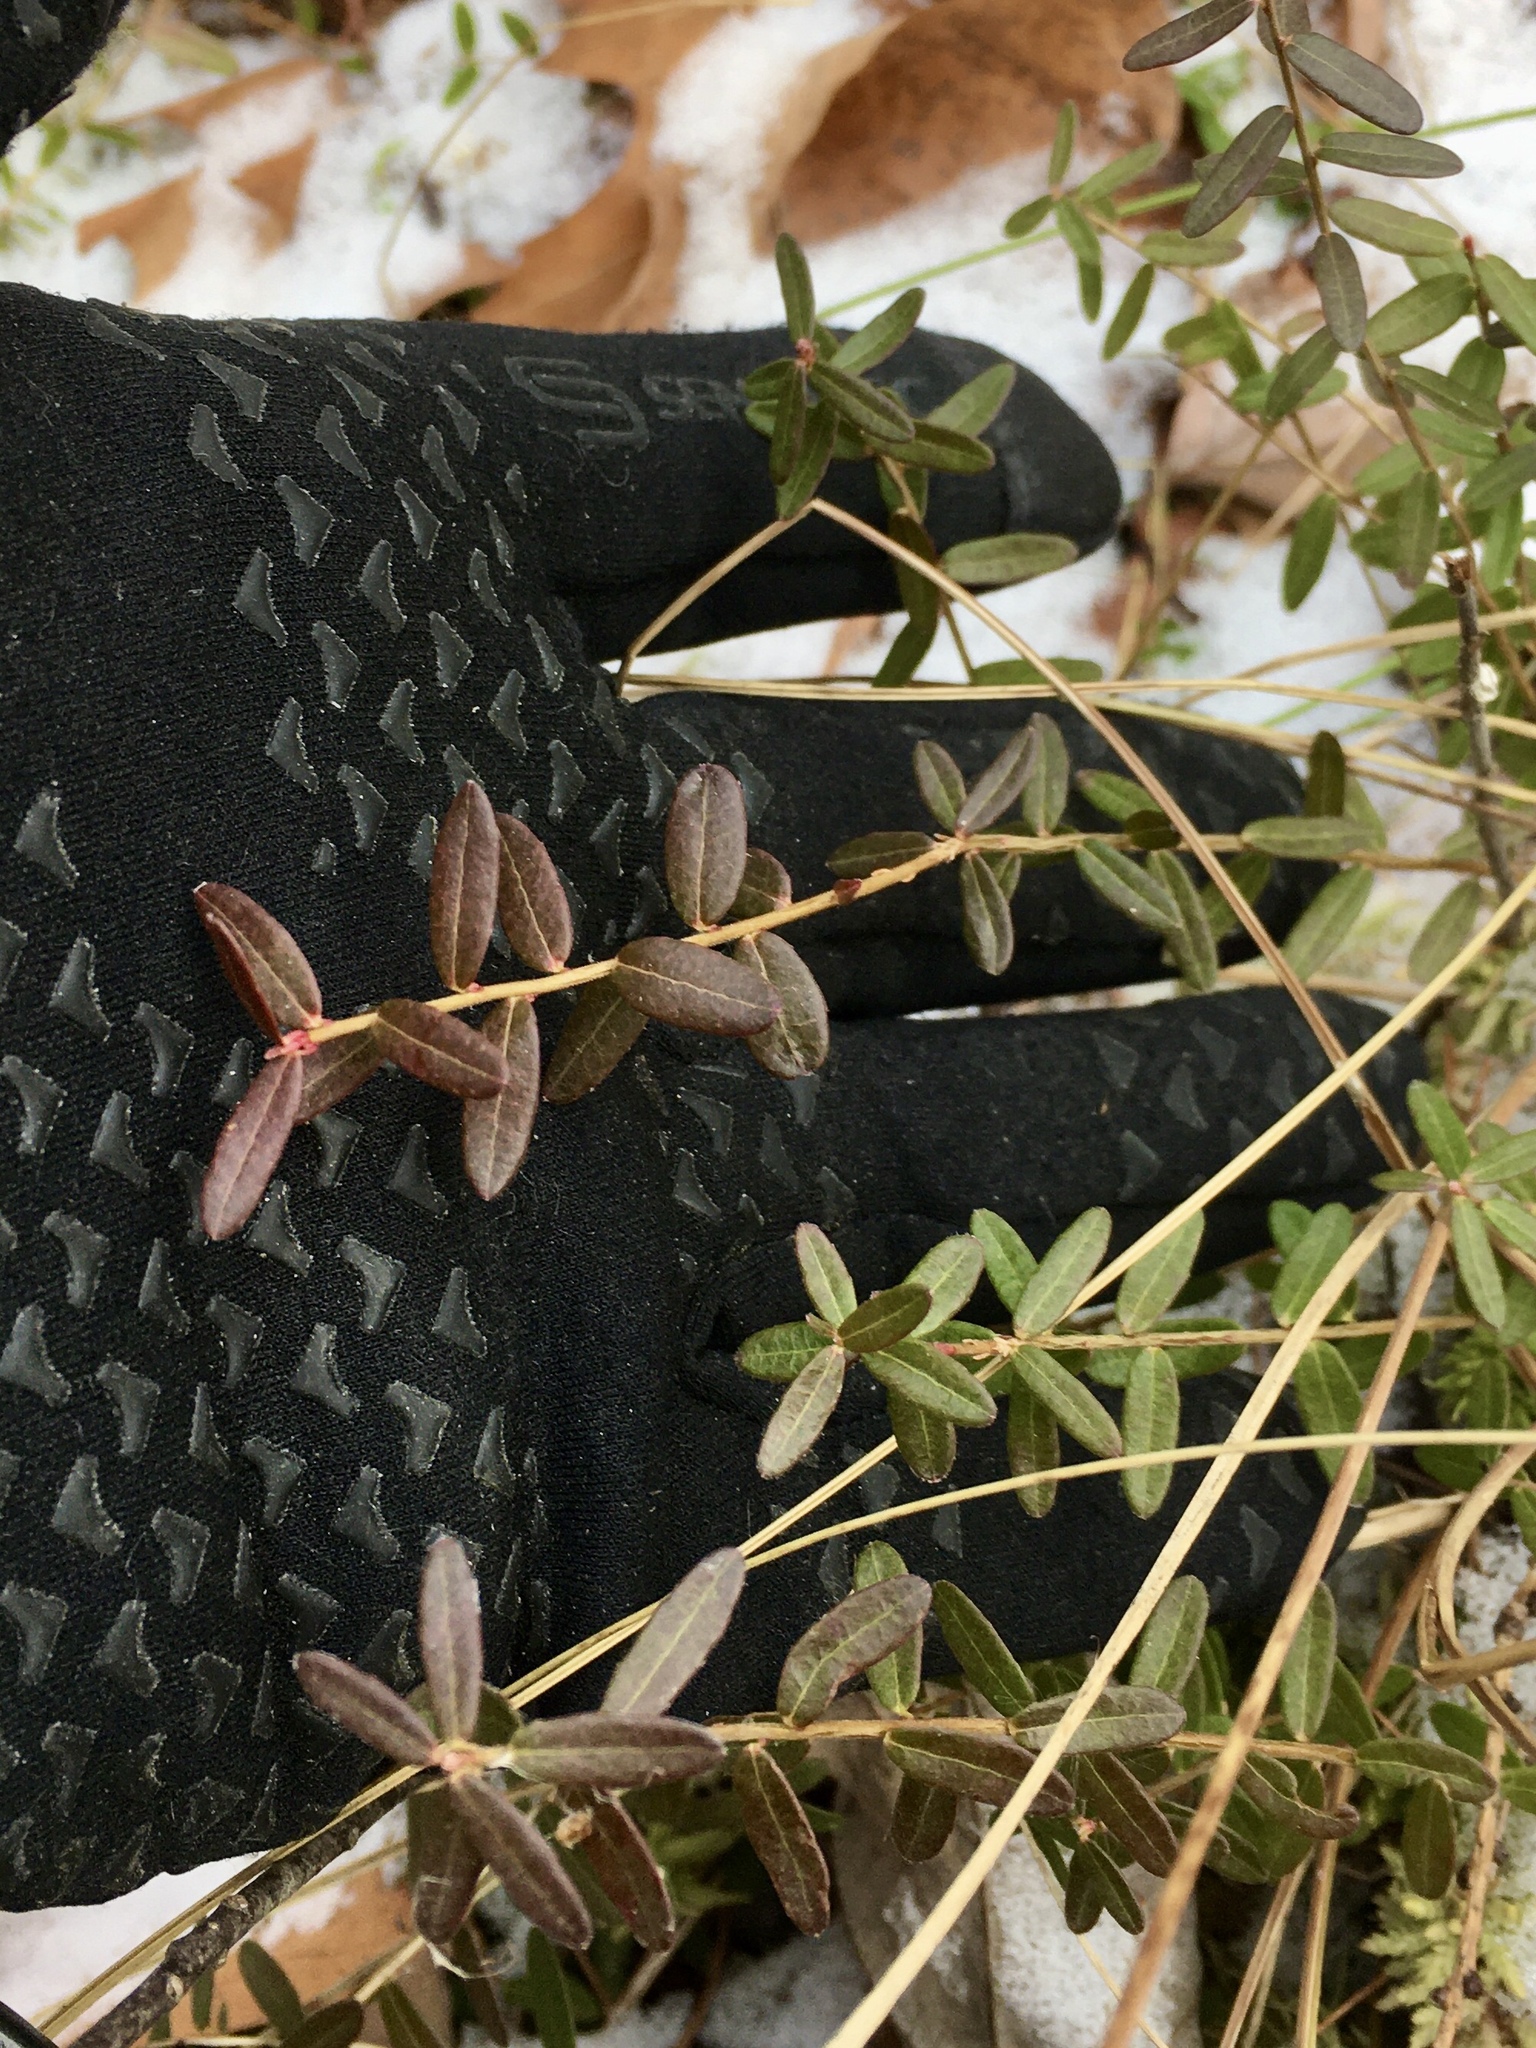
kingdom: Plantae
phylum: Tracheophyta
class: Magnoliopsida
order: Ericales
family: Ericaceae
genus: Vaccinium
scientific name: Vaccinium macrocarpon
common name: American cranberry
